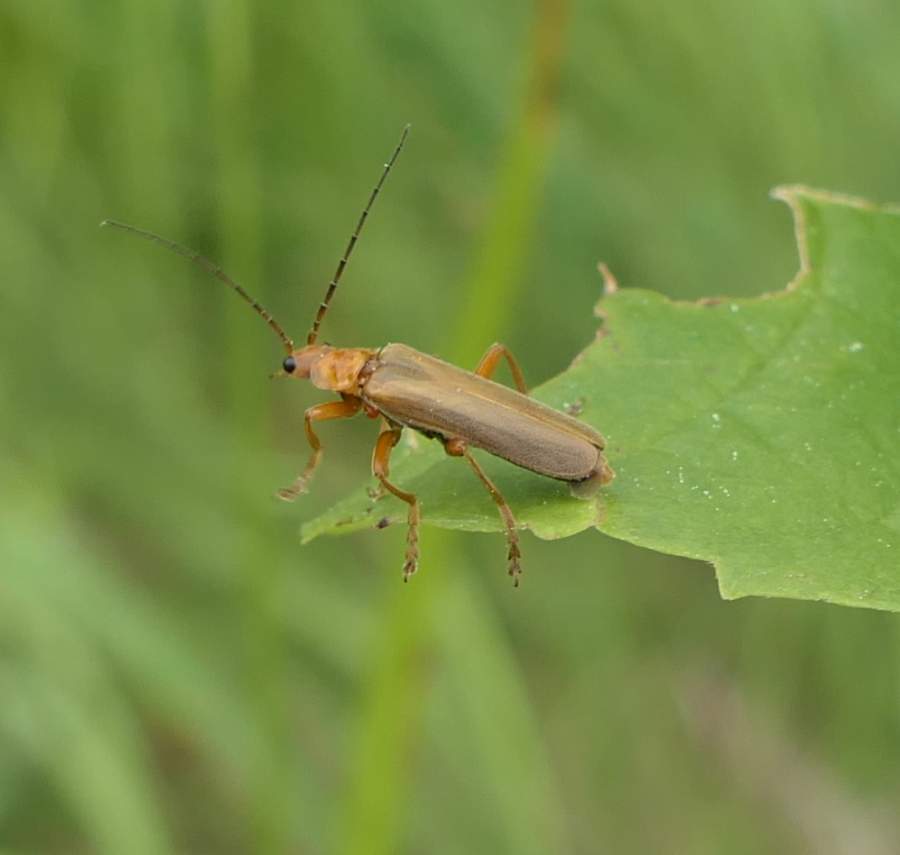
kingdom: Animalia
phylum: Arthropoda
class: Insecta
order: Coleoptera
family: Cantharidae
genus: Cantharis
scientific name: Cantharis rufa
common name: Red-spotted soldier beetle
